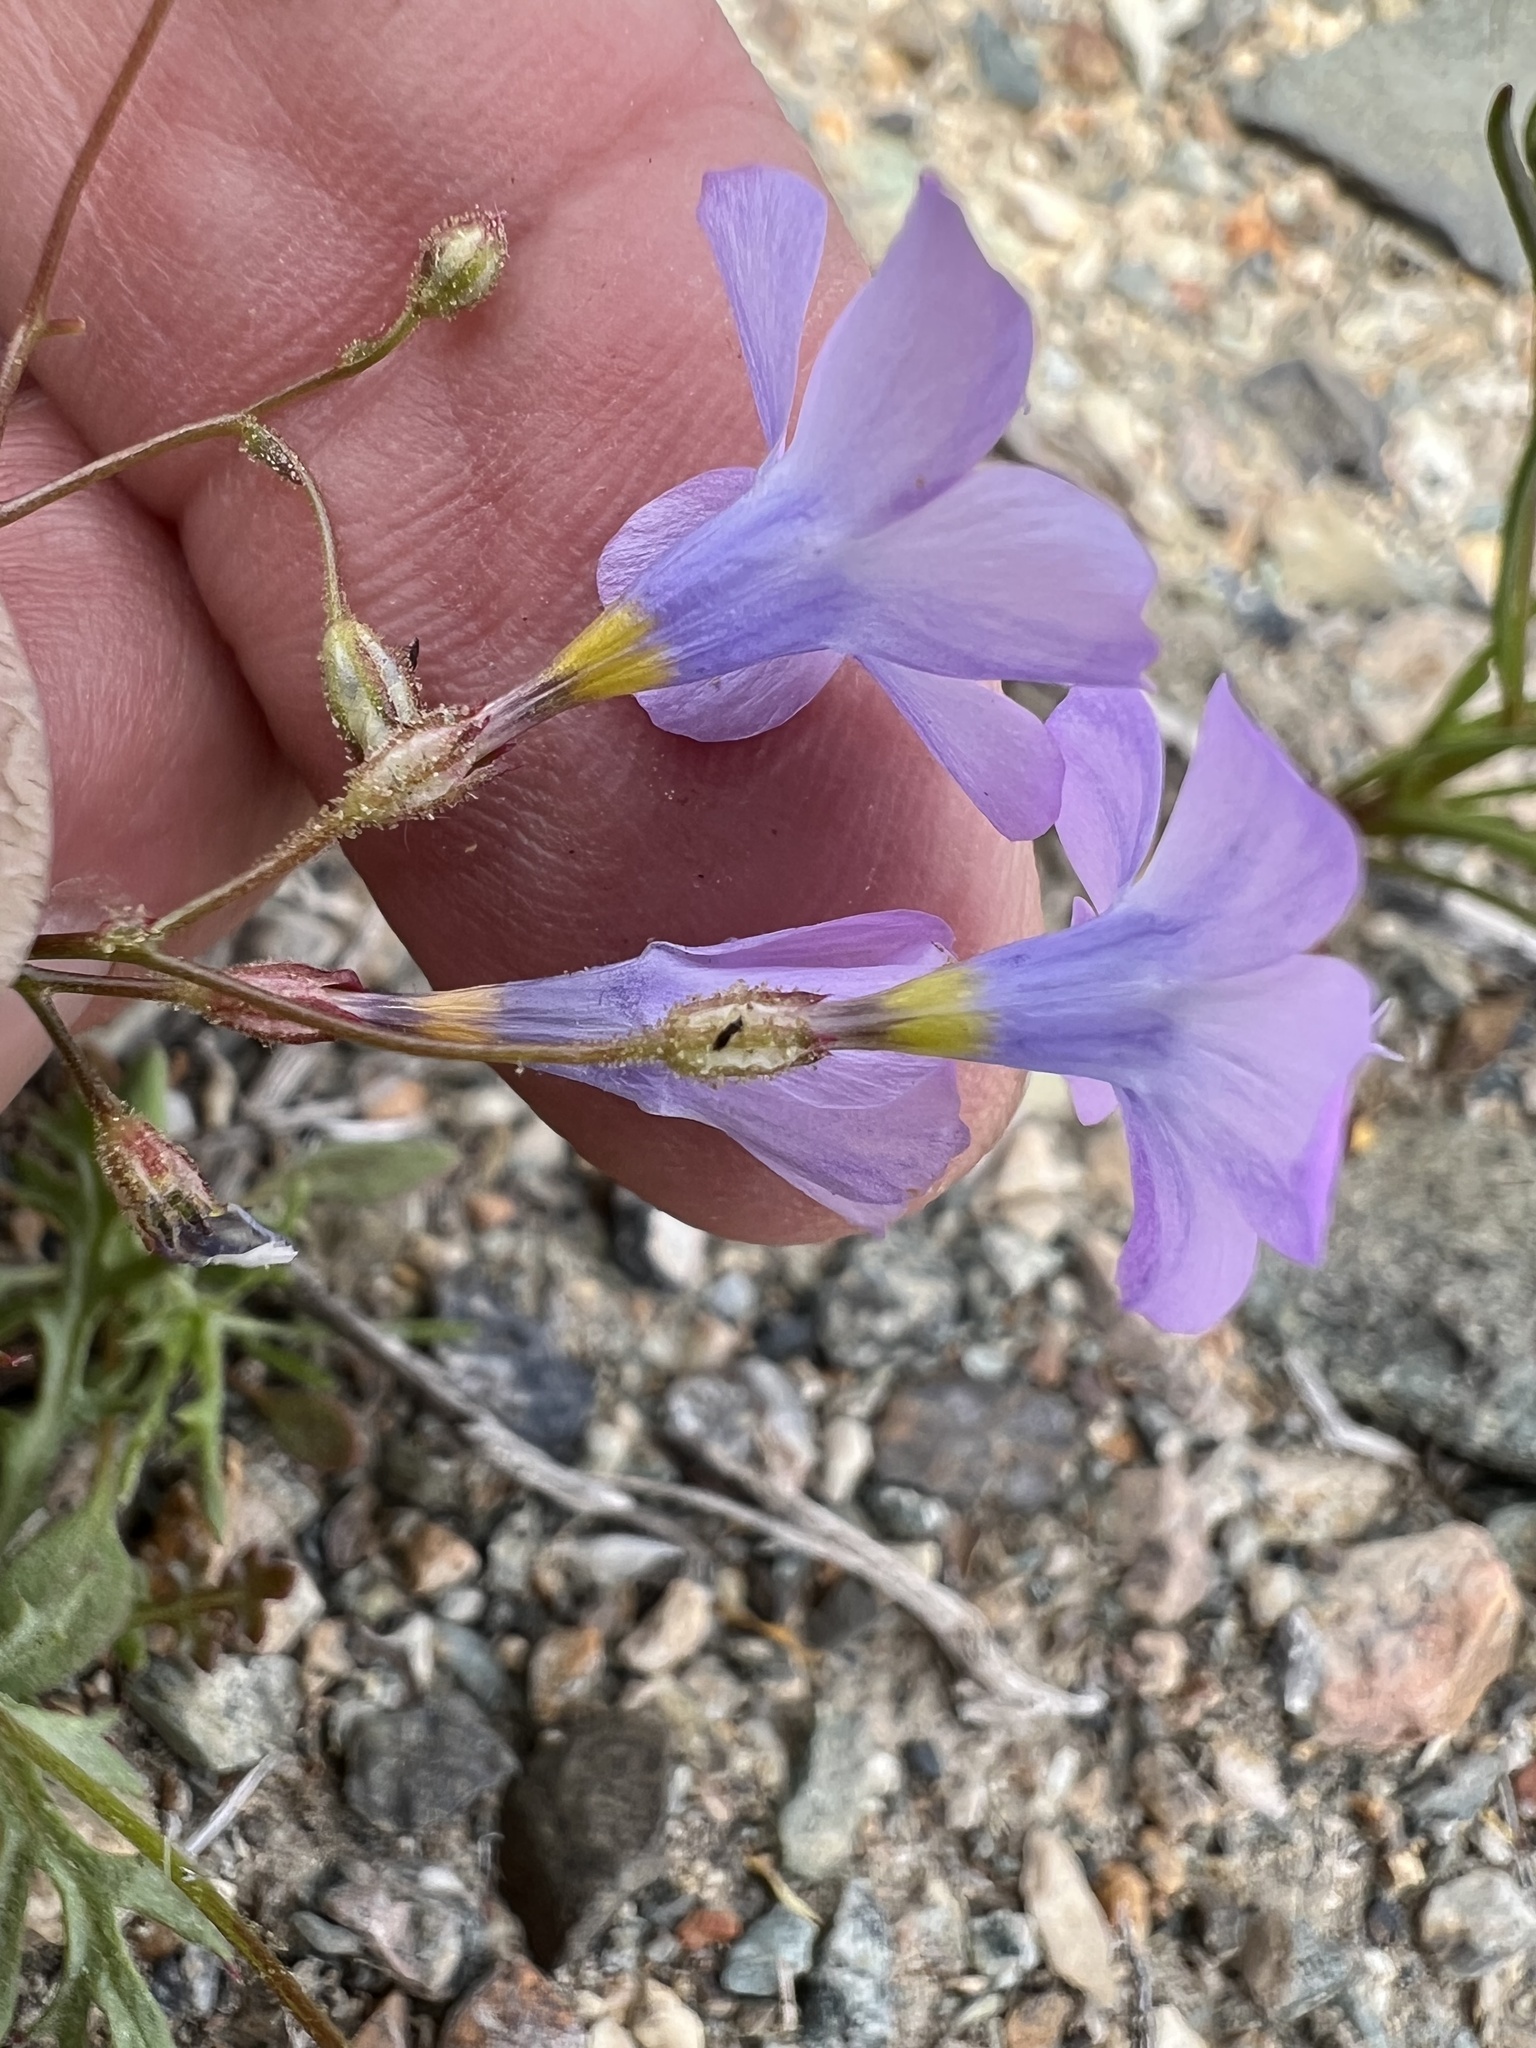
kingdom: Plantae
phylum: Tracheophyta
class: Magnoliopsida
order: Ericales
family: Polemoniaceae
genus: Gilia
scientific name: Gilia cana
